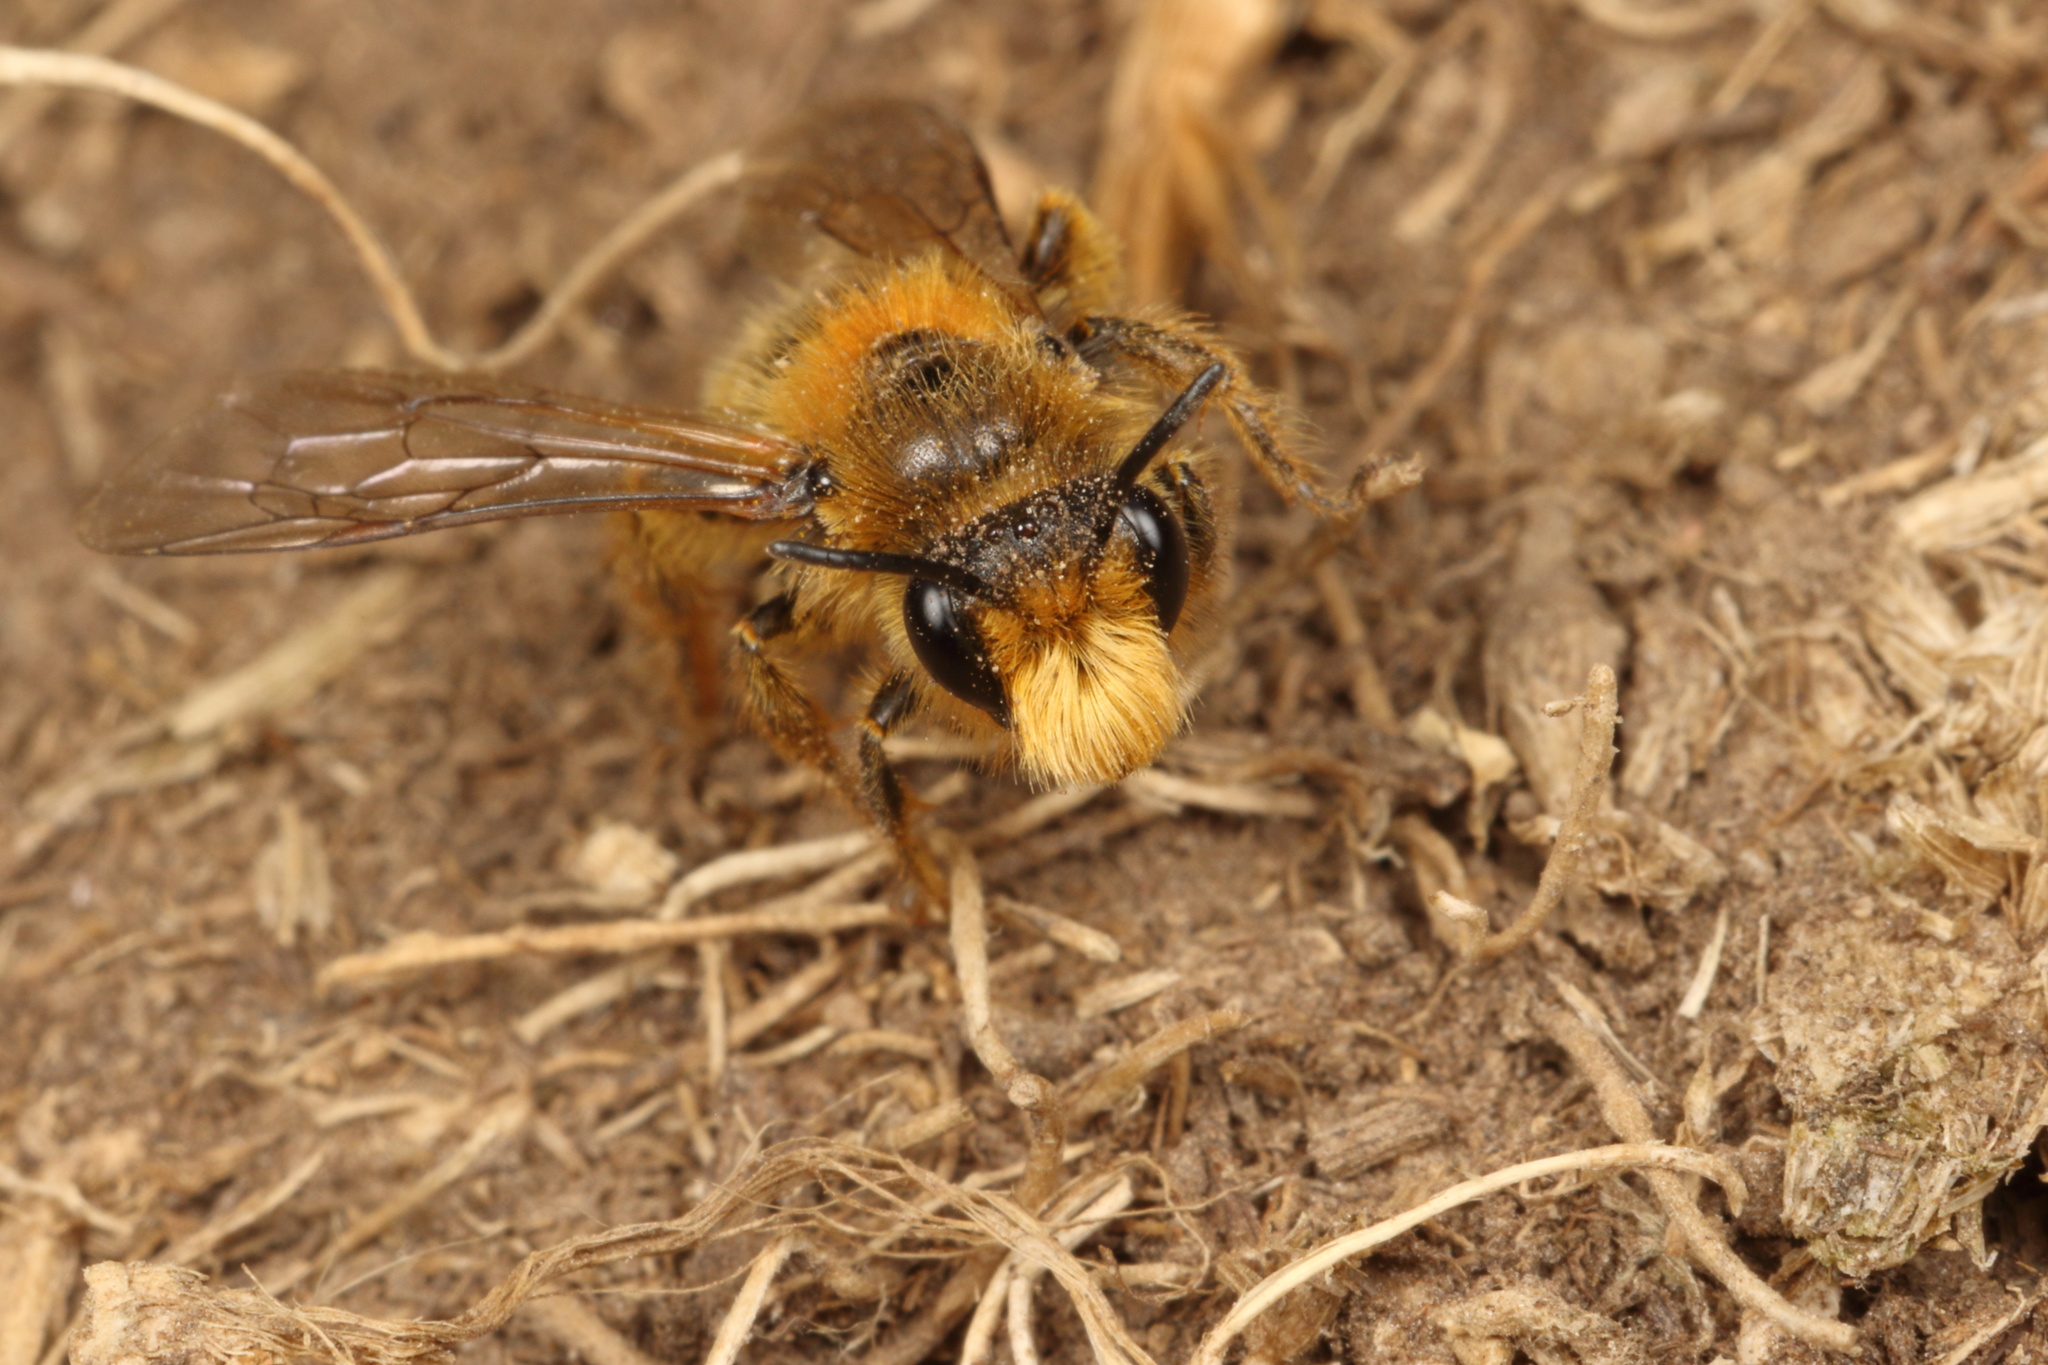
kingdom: Animalia
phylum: Arthropoda
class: Insecta
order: Hymenoptera
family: Colletidae
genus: Leioproctus
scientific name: Leioproctus fulvescens
